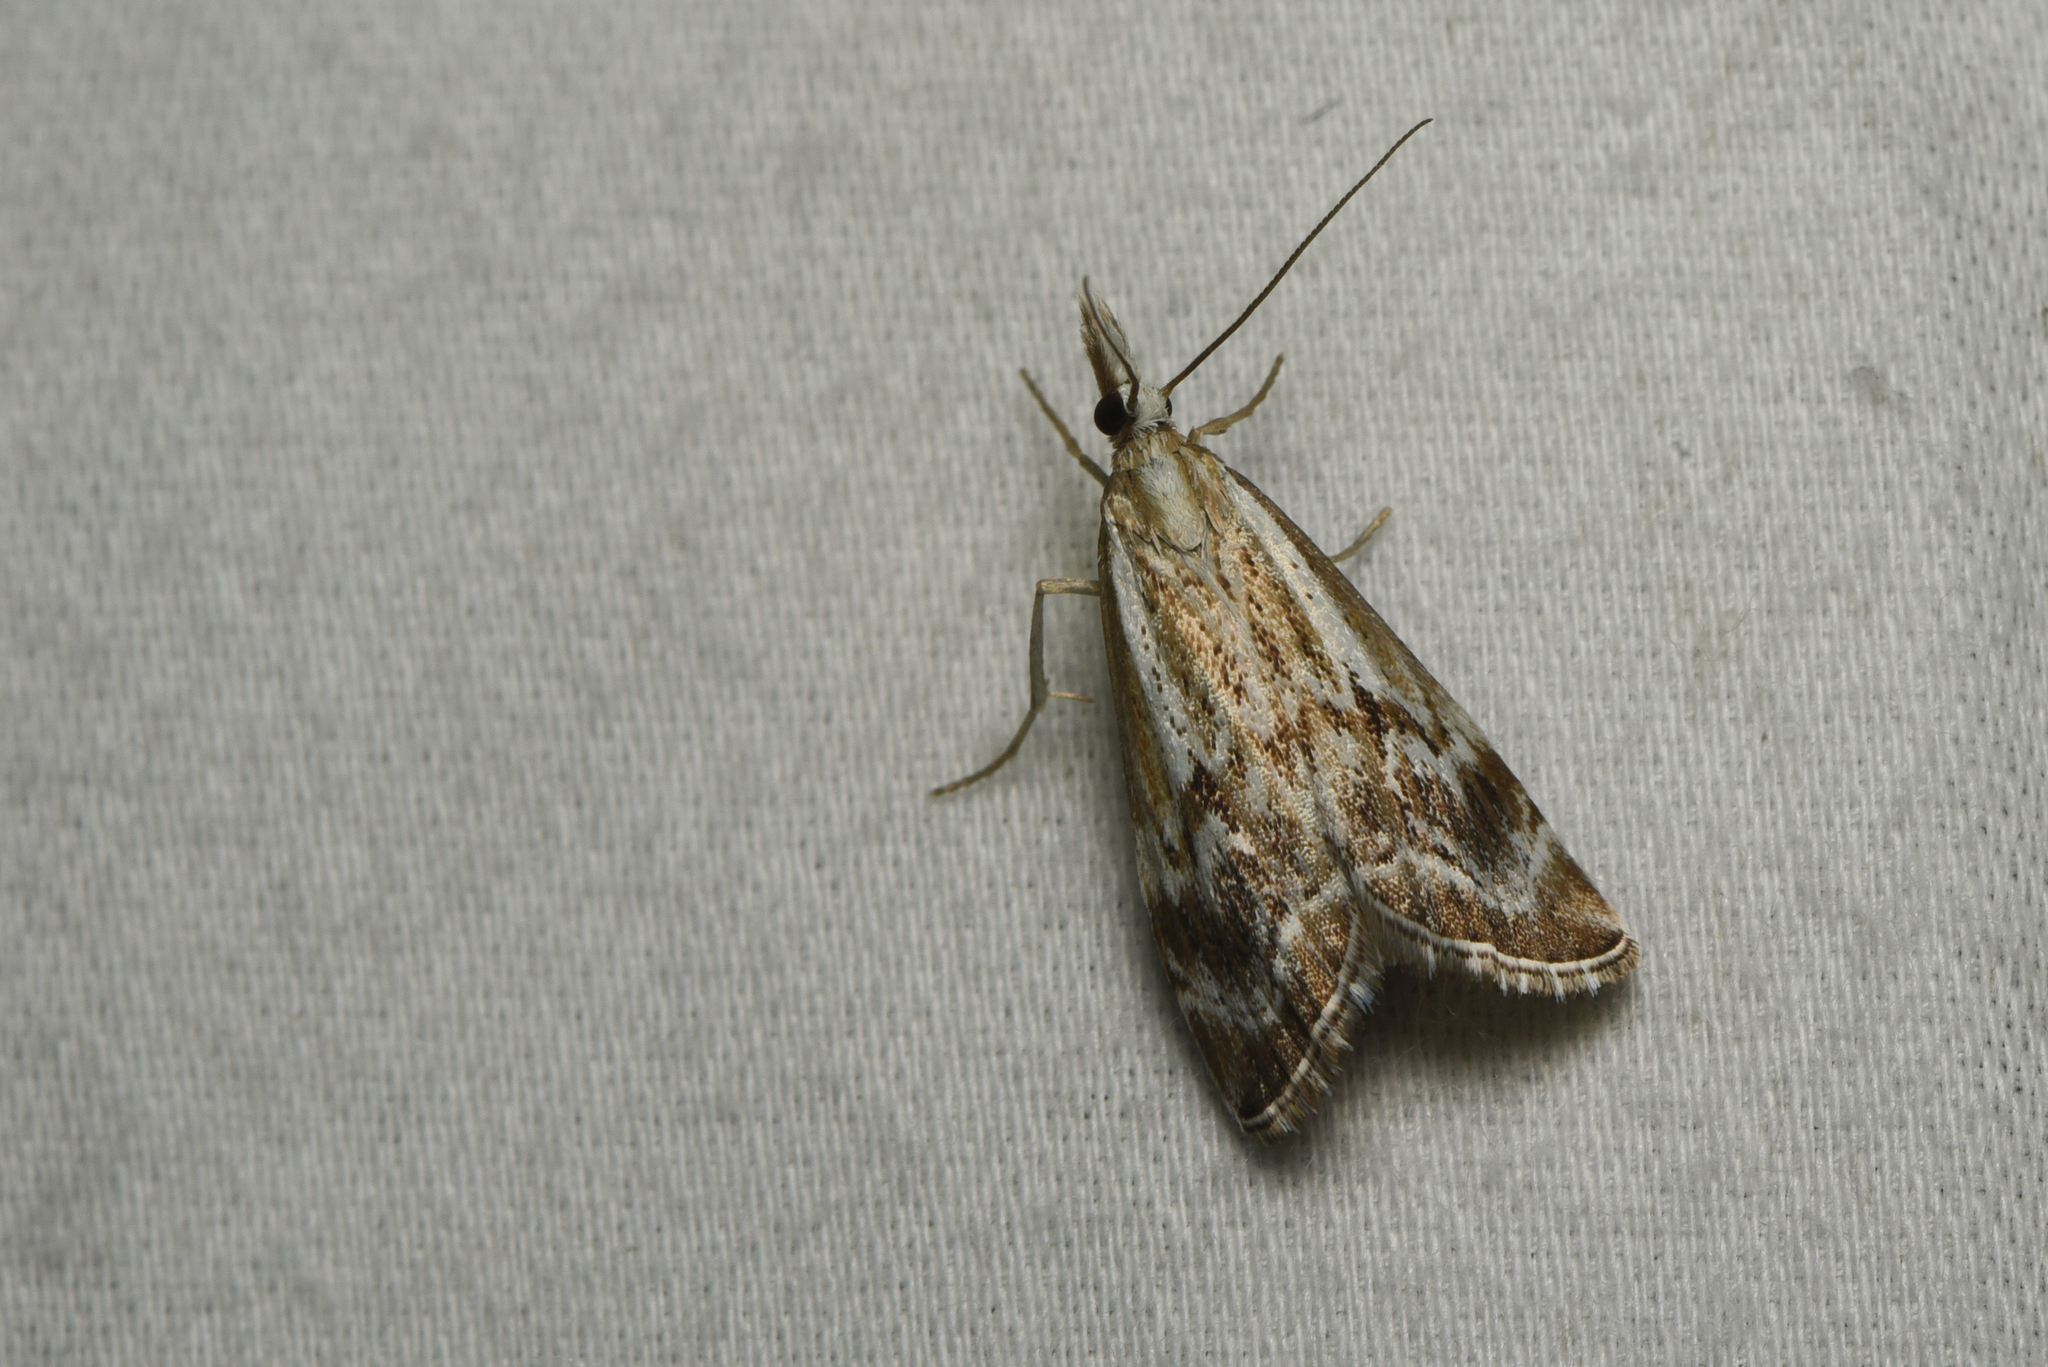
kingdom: Animalia
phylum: Arthropoda
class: Insecta
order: Lepidoptera
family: Crambidae
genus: Catoptria
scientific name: Catoptria oregonicus
